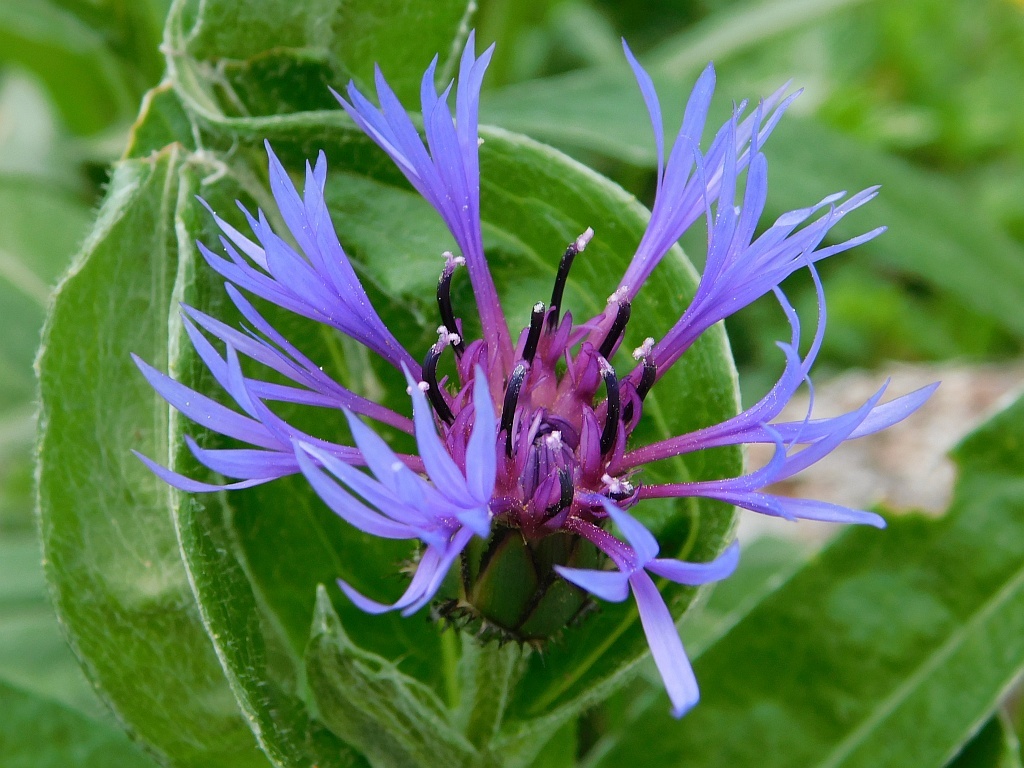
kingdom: Plantae
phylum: Tracheophyta
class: Magnoliopsida
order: Asterales
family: Asteraceae
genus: Centaurea
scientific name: Centaurea montana
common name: Perennial cornflower
